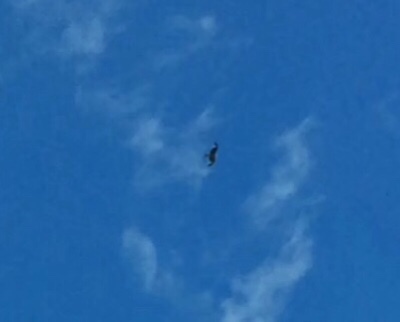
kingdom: Animalia
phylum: Chordata
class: Aves
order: Accipitriformes
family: Accipitridae
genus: Milvus
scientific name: Milvus milvus
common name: Red kite
